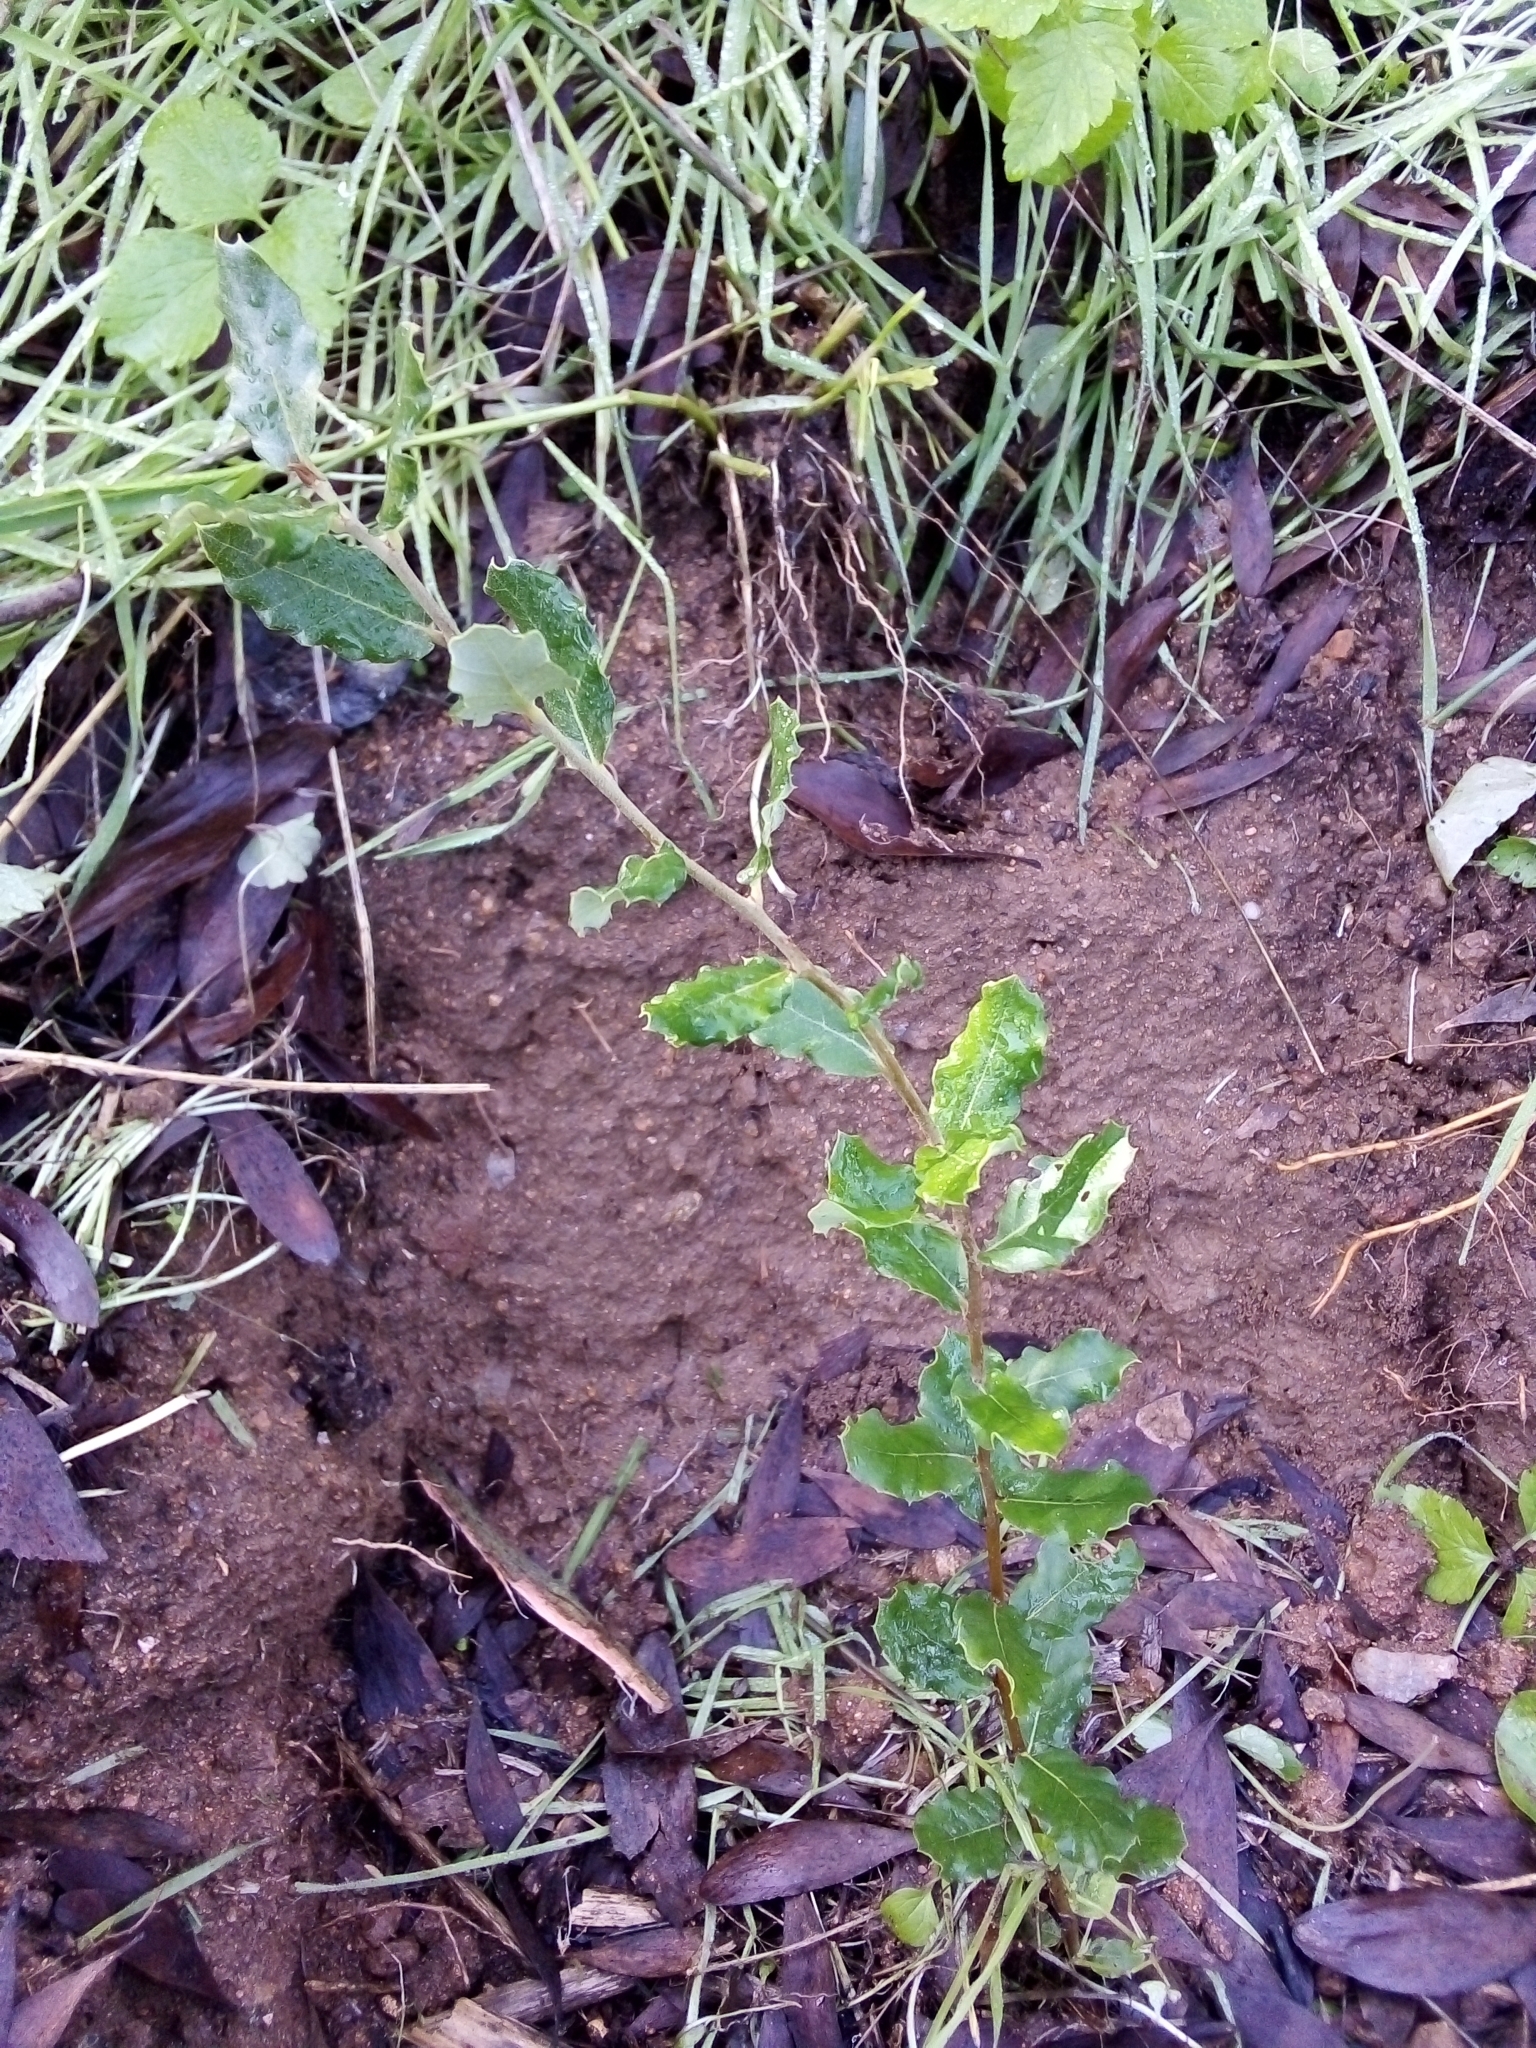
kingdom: Plantae
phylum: Tracheophyta
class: Magnoliopsida
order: Fagales
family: Fagaceae
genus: Quercus
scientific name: Quercus suber
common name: Cork oak
